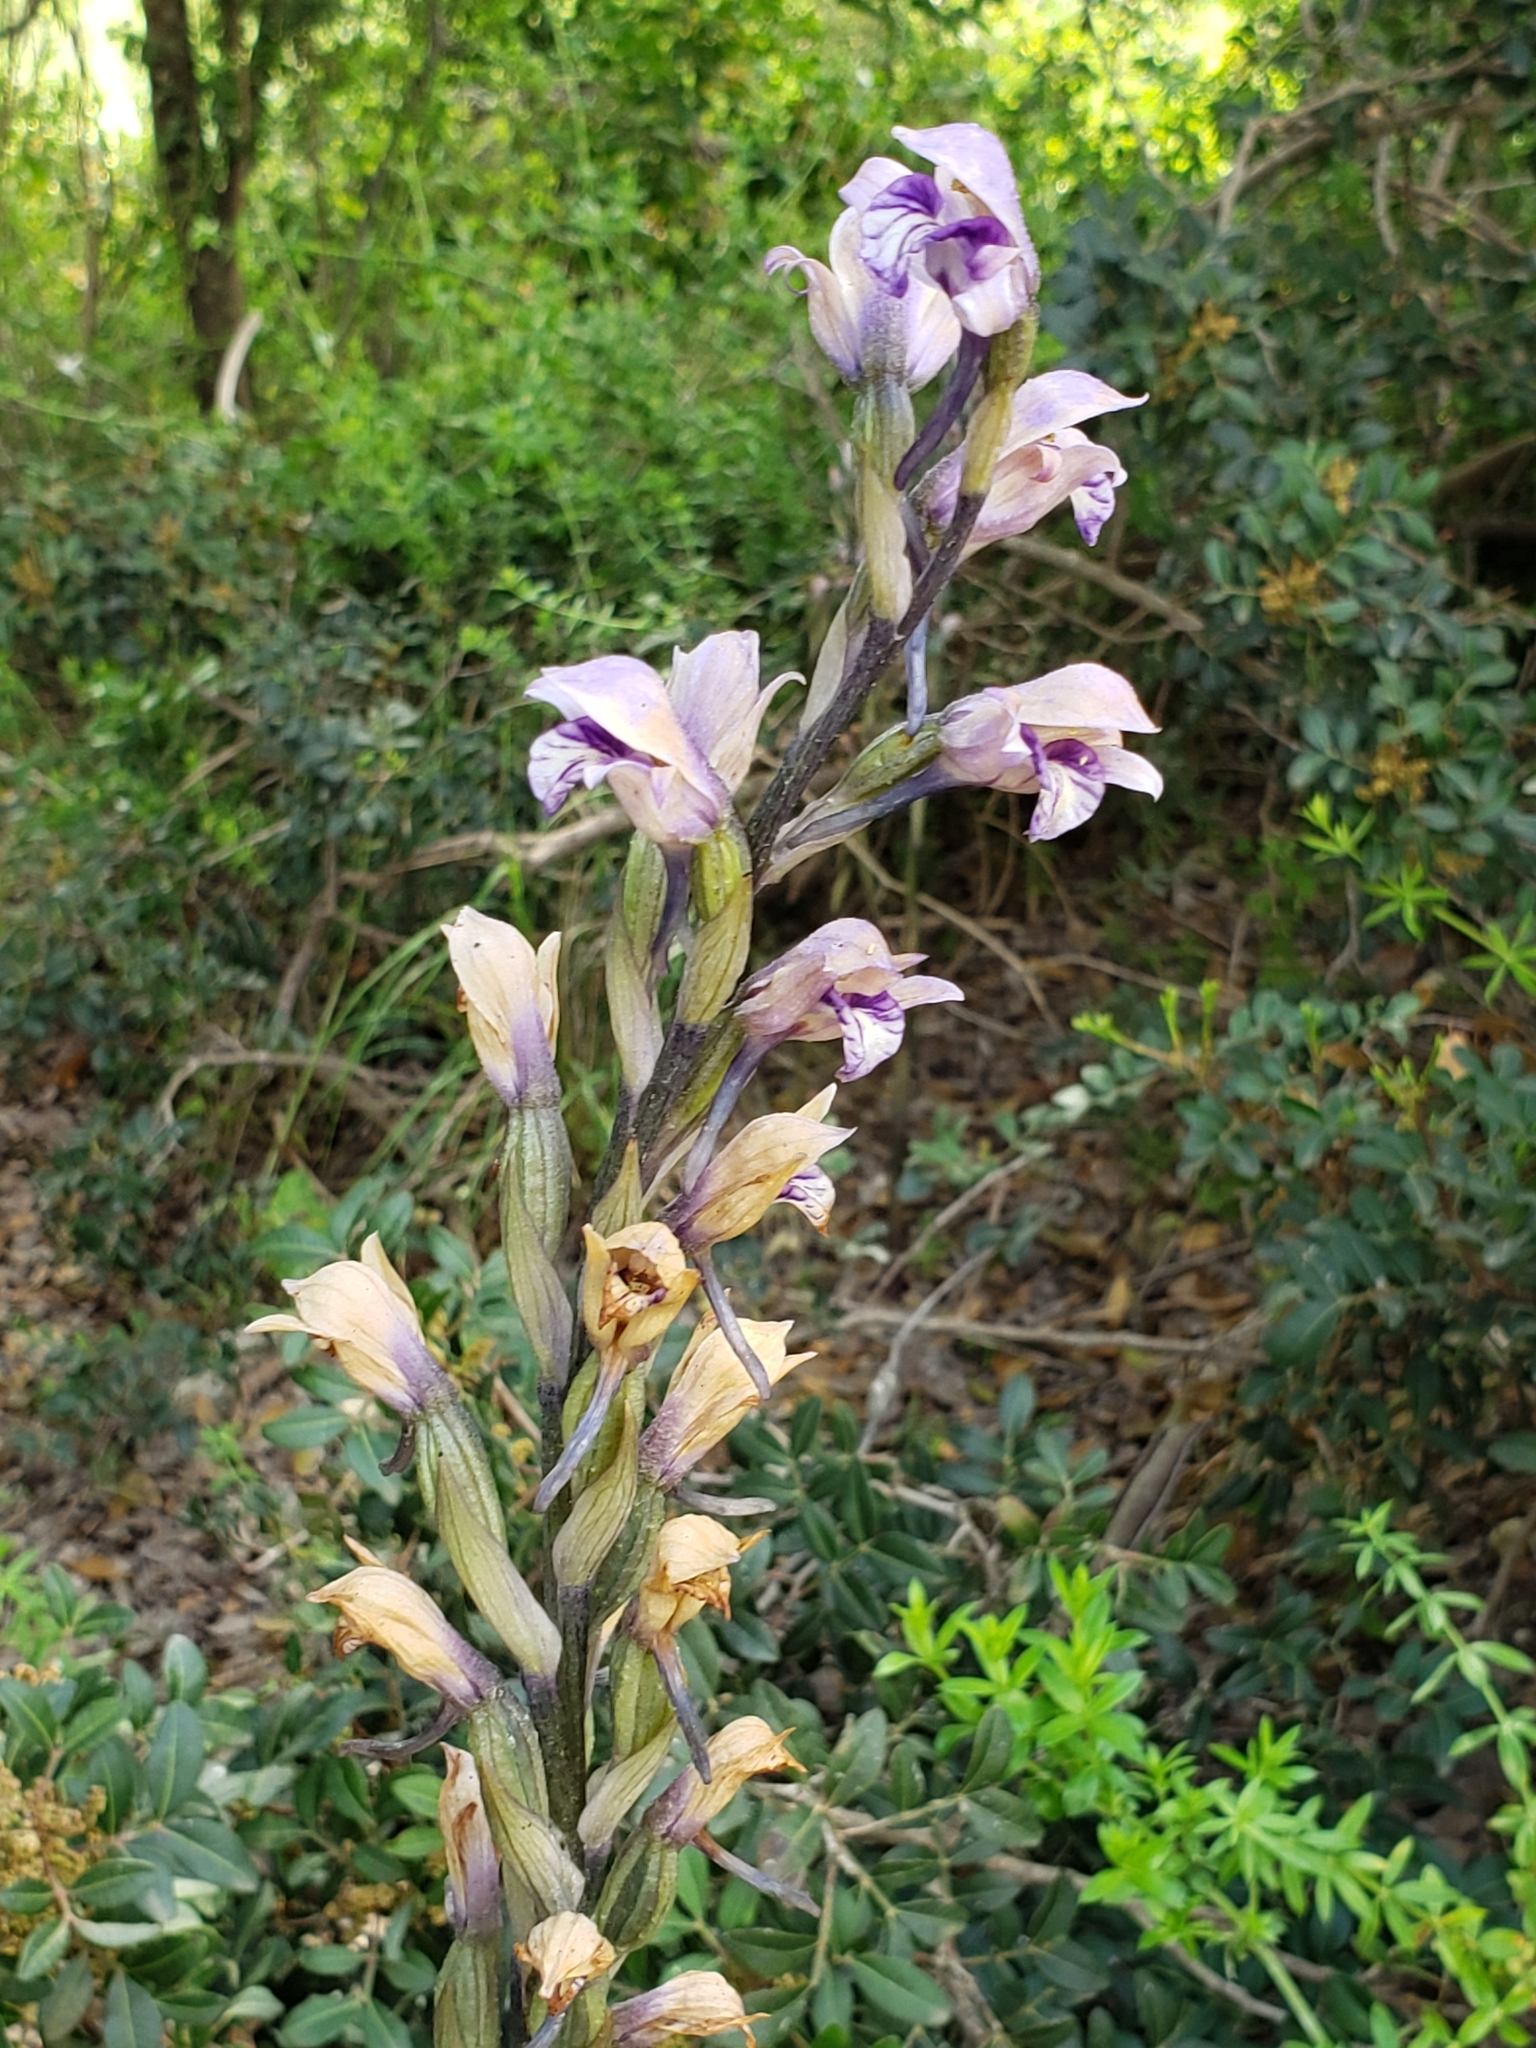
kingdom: Plantae
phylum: Tracheophyta
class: Liliopsida
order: Asparagales
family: Orchidaceae
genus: Limodorum
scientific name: Limodorum abortivum
